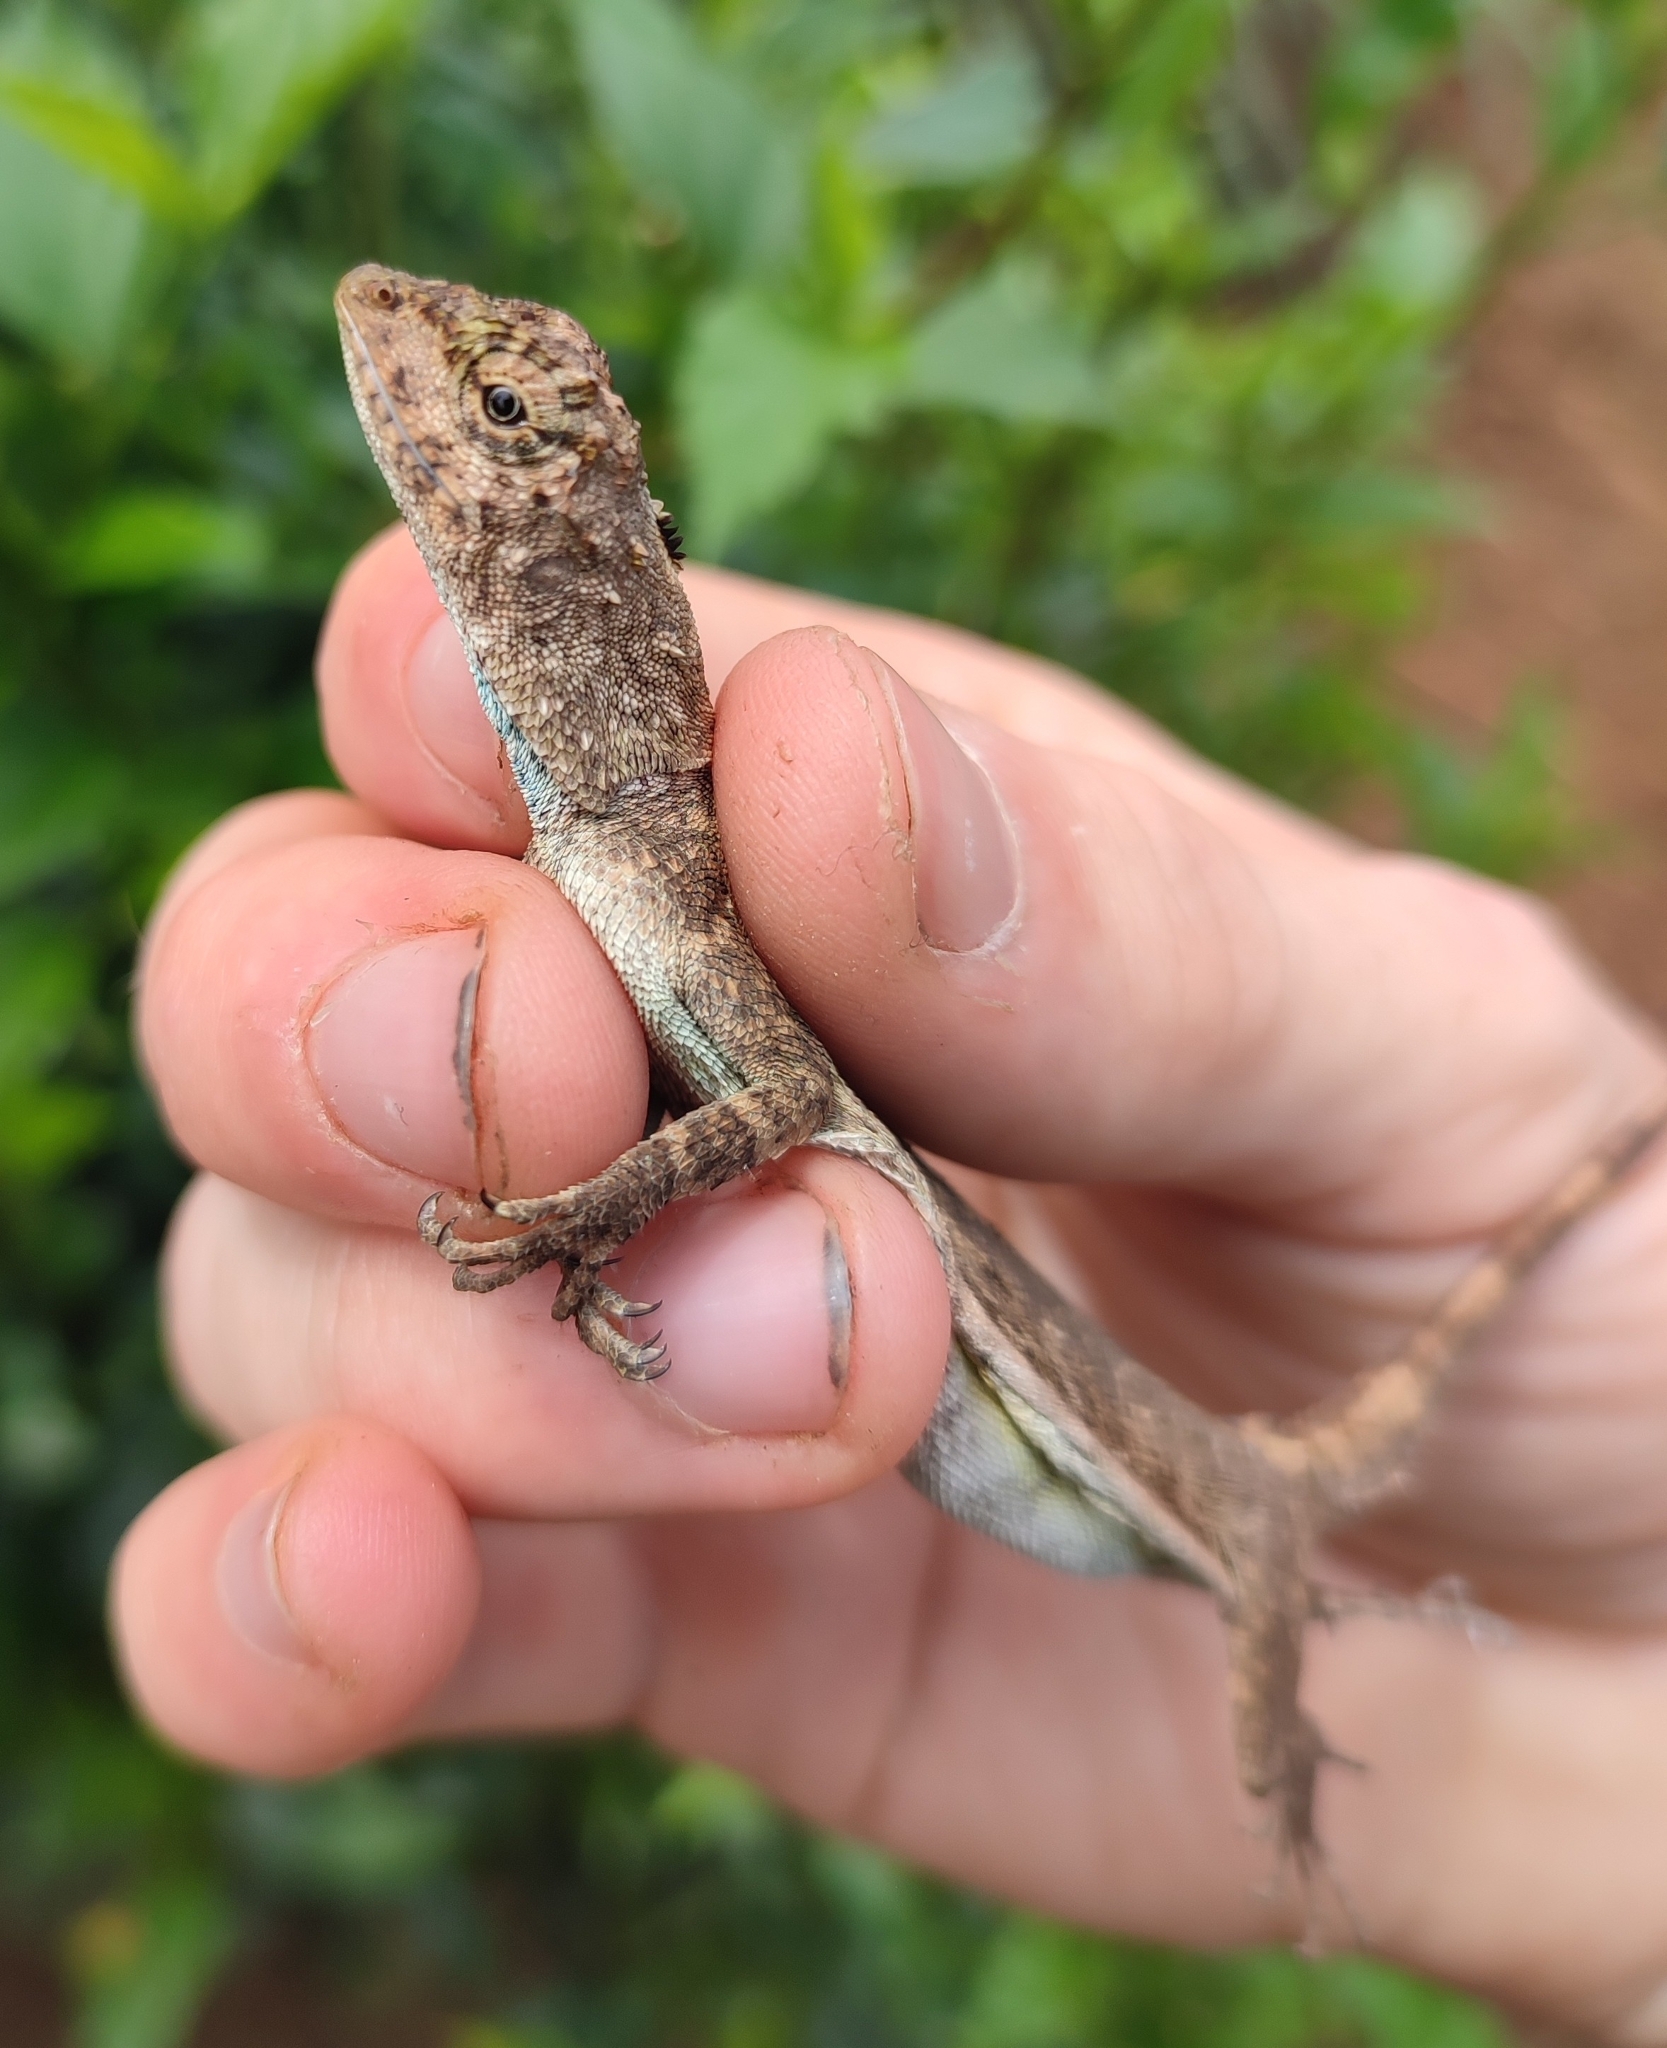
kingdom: Animalia
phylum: Chordata
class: Squamata
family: Agamidae
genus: Draco
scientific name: Draco sumatranus
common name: Common gliding lizard
